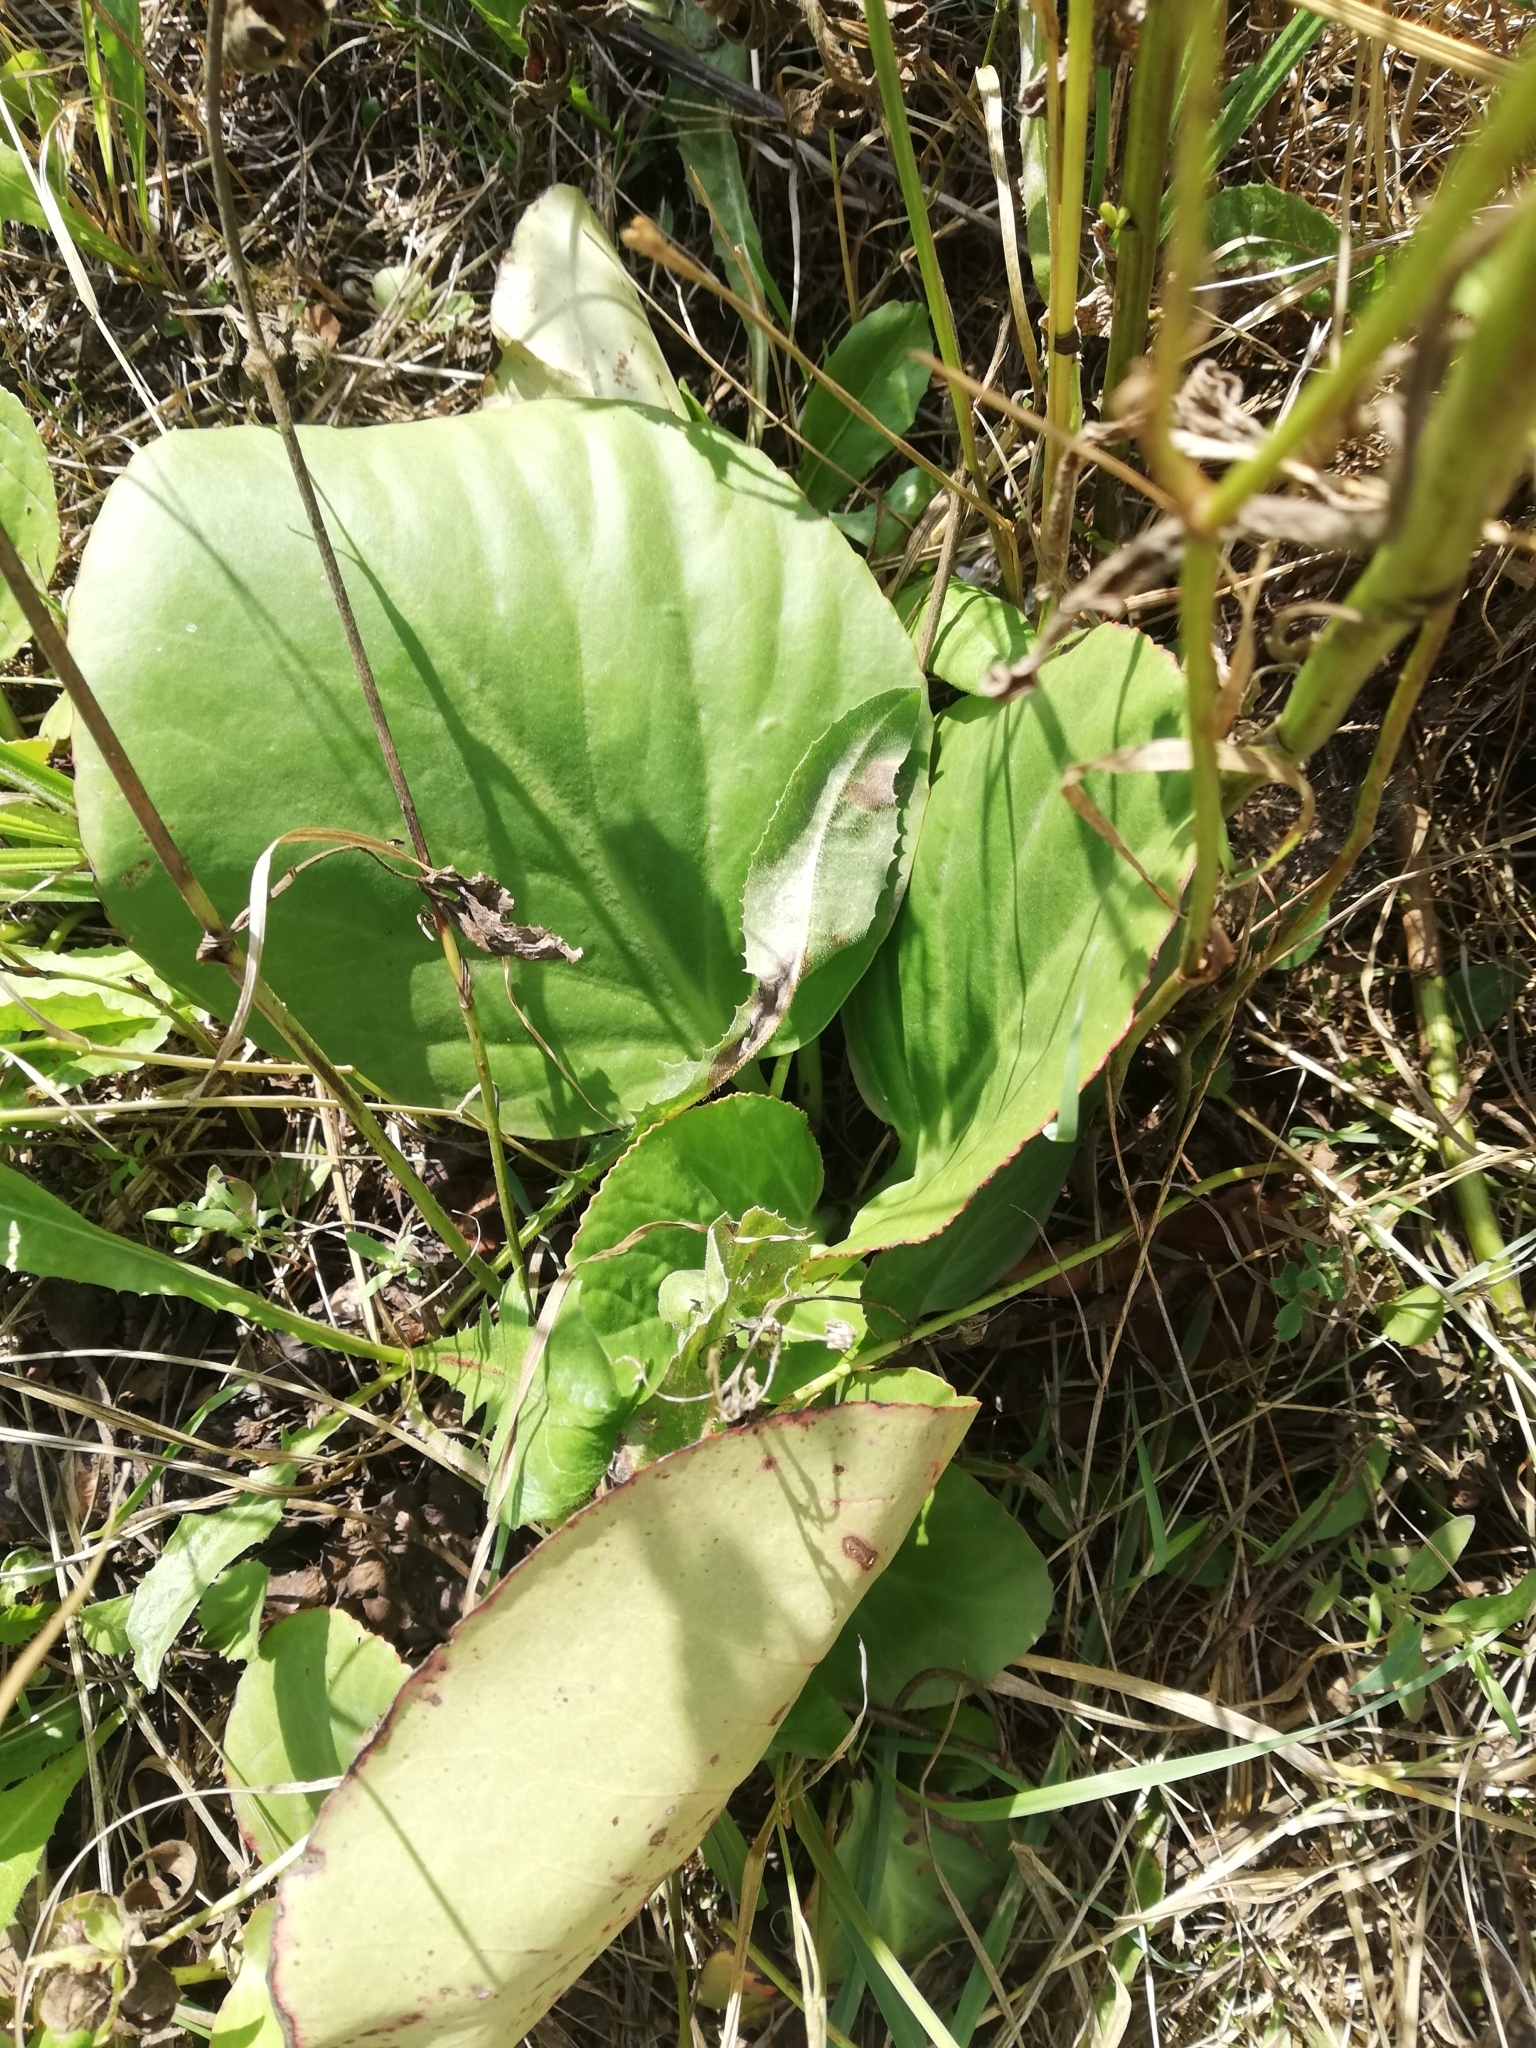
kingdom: Plantae
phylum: Tracheophyta
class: Magnoliopsida
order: Saxifragales
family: Saxifragaceae
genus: Bergenia
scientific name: Bergenia crassifolia
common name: Elephant-ears
